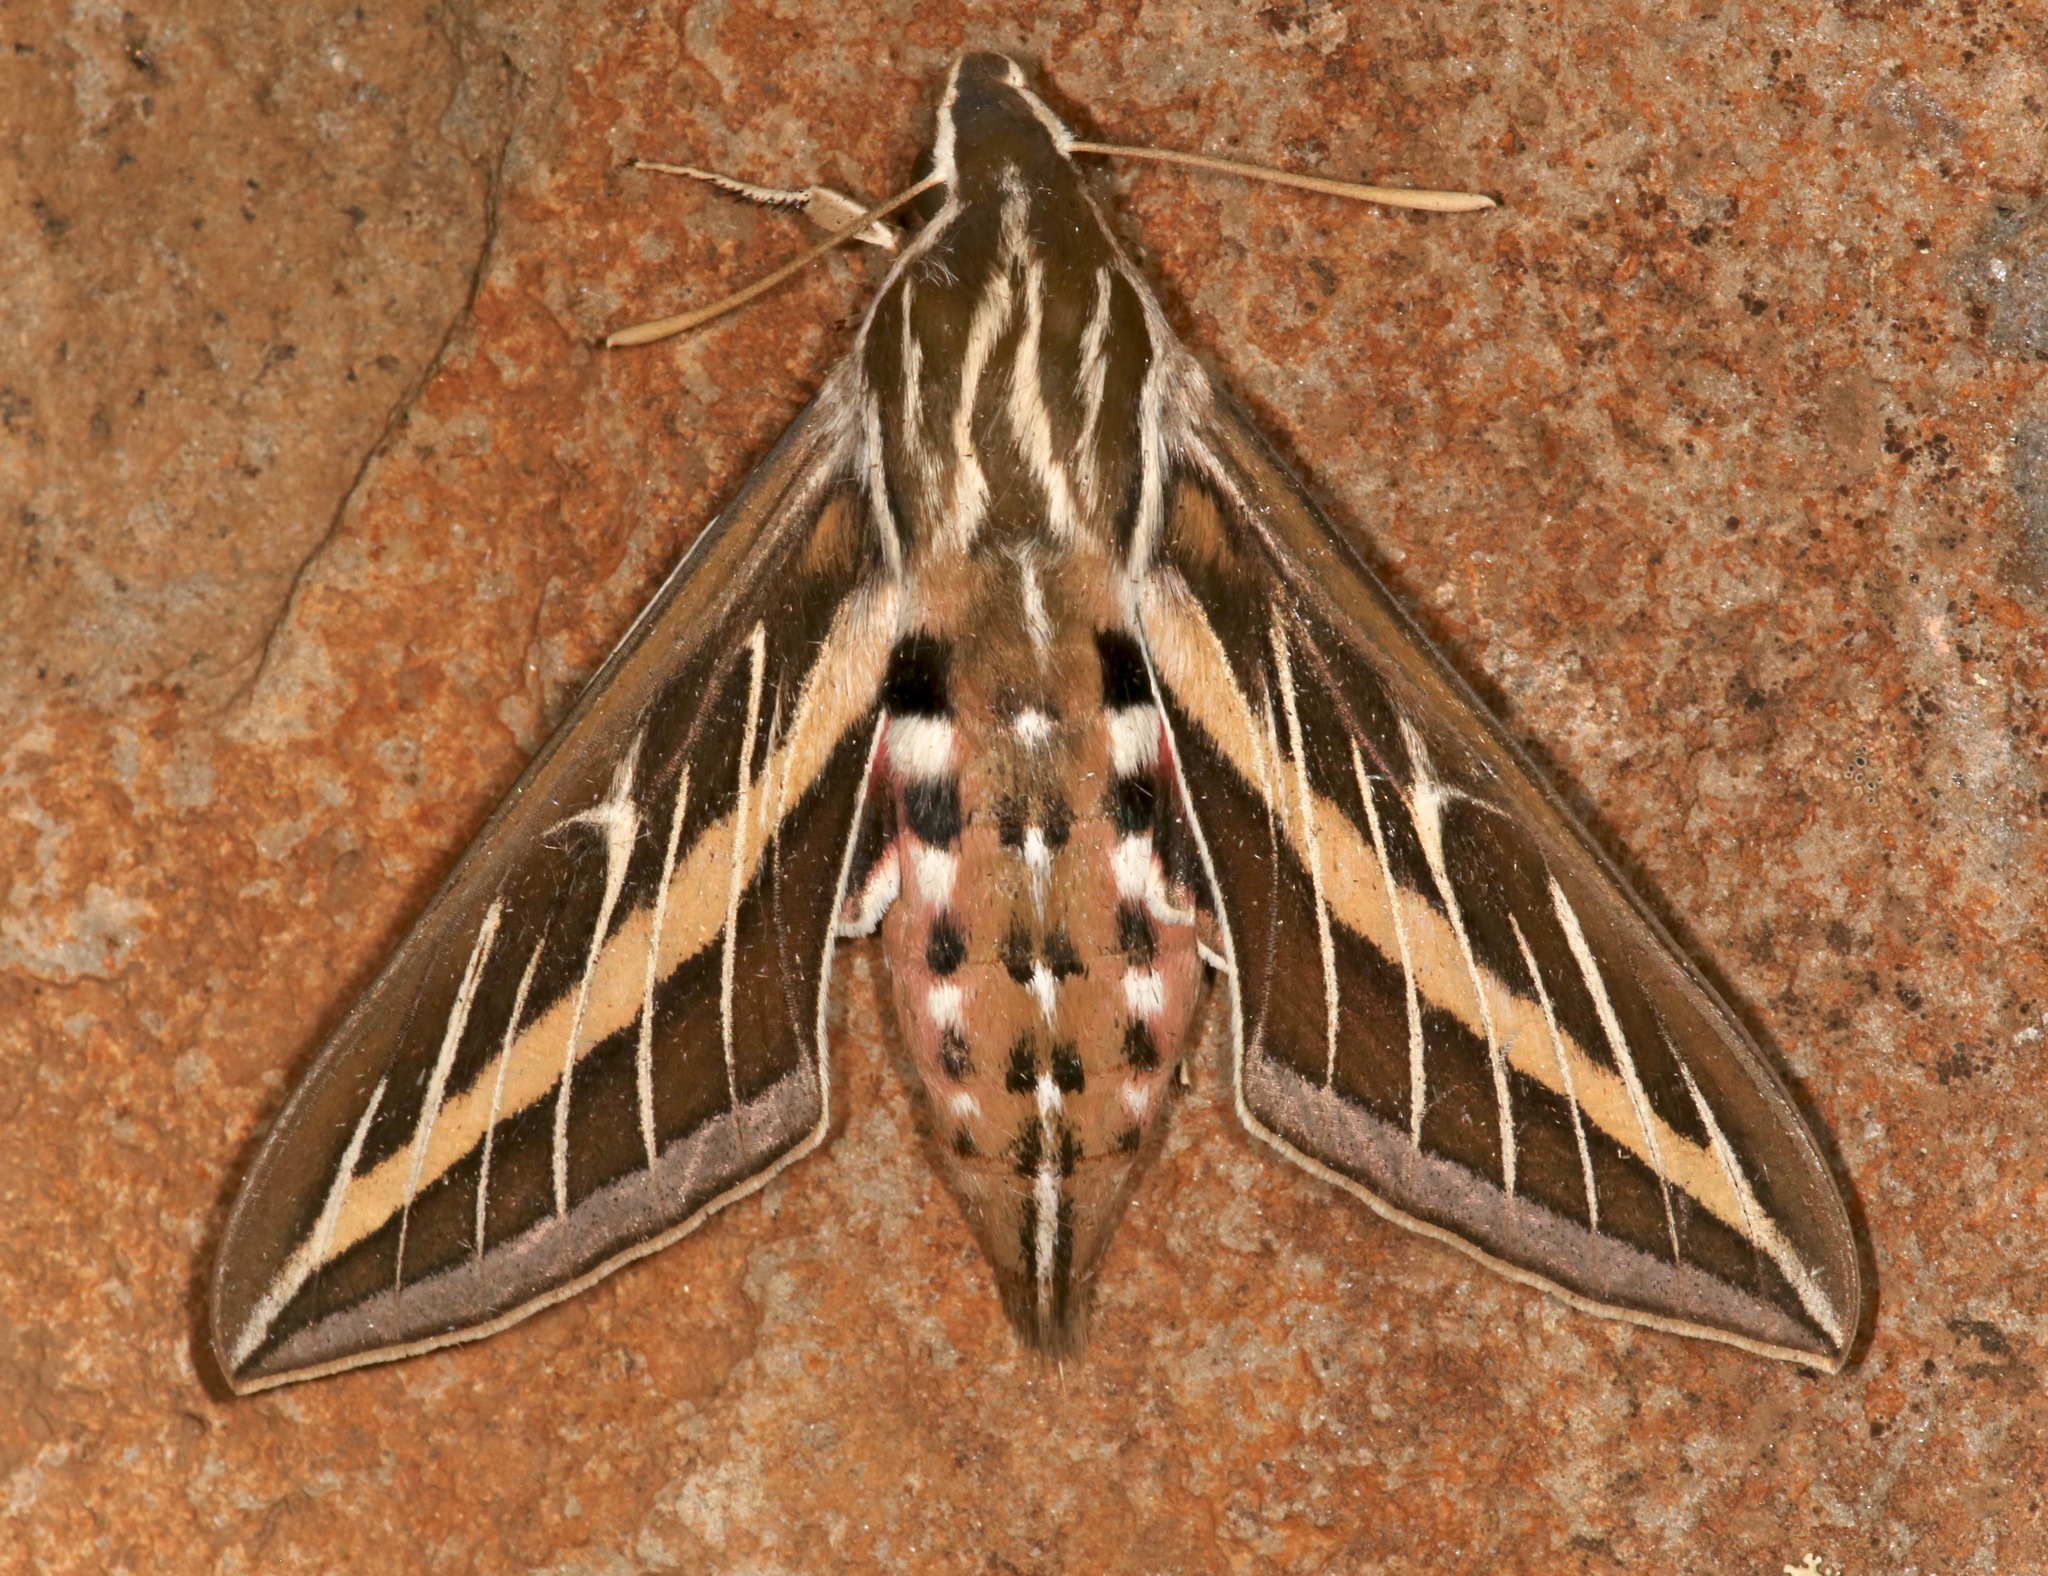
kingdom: Animalia
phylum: Arthropoda
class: Insecta
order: Lepidoptera
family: Sphingidae
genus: Hyles
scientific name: Hyles lineata
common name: White-lined sphinx
